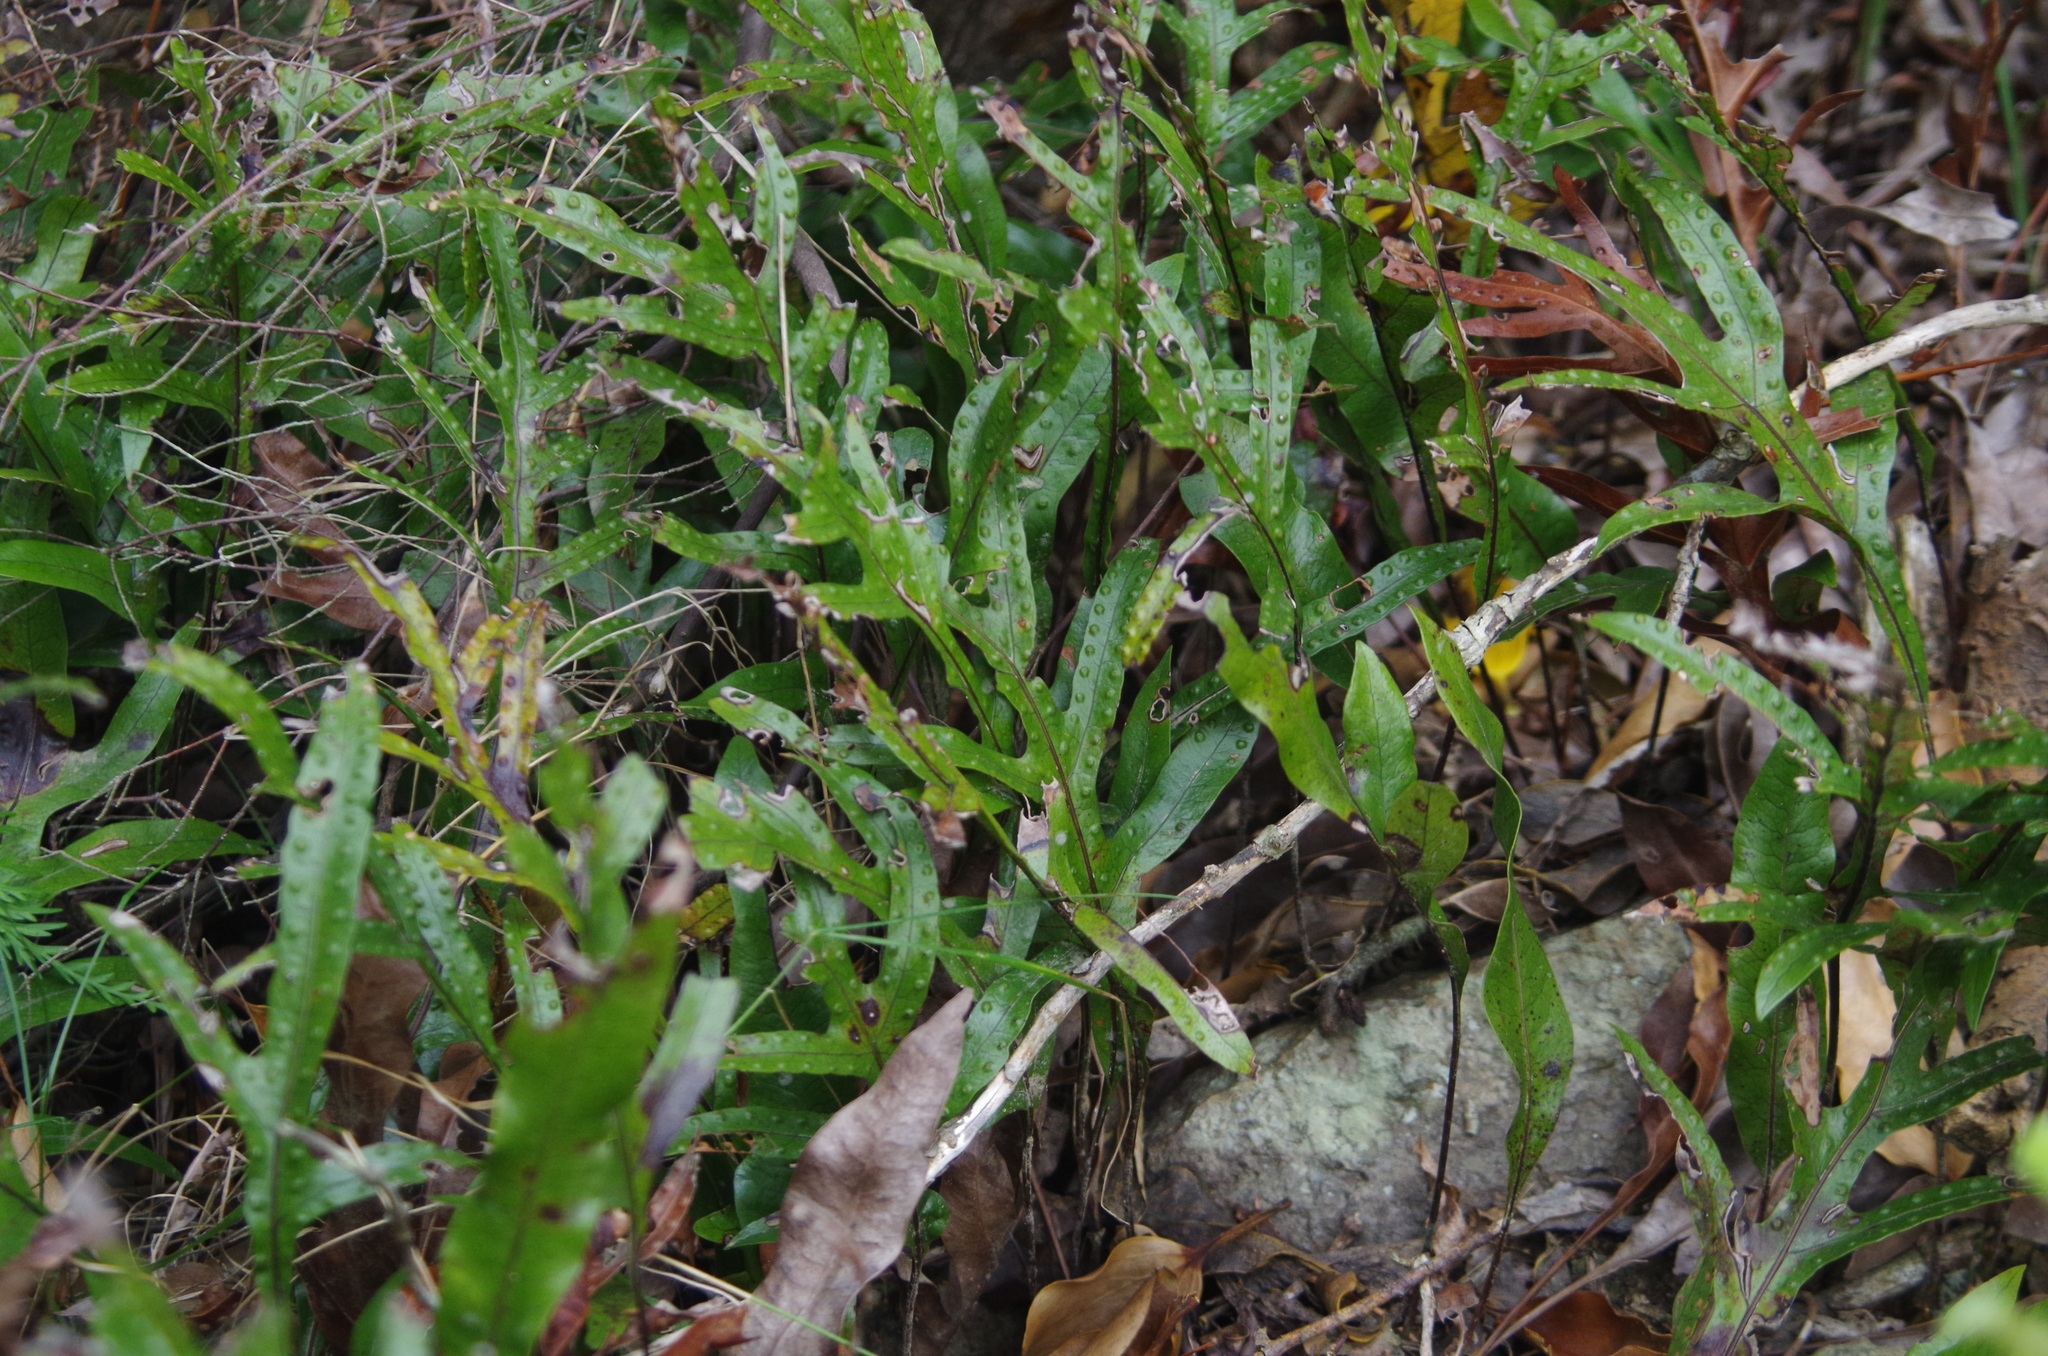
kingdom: Plantae
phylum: Tracheophyta
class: Polypodiopsida
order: Polypodiales
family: Polypodiaceae
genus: Lecanopteris
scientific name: Lecanopteris pustulata
